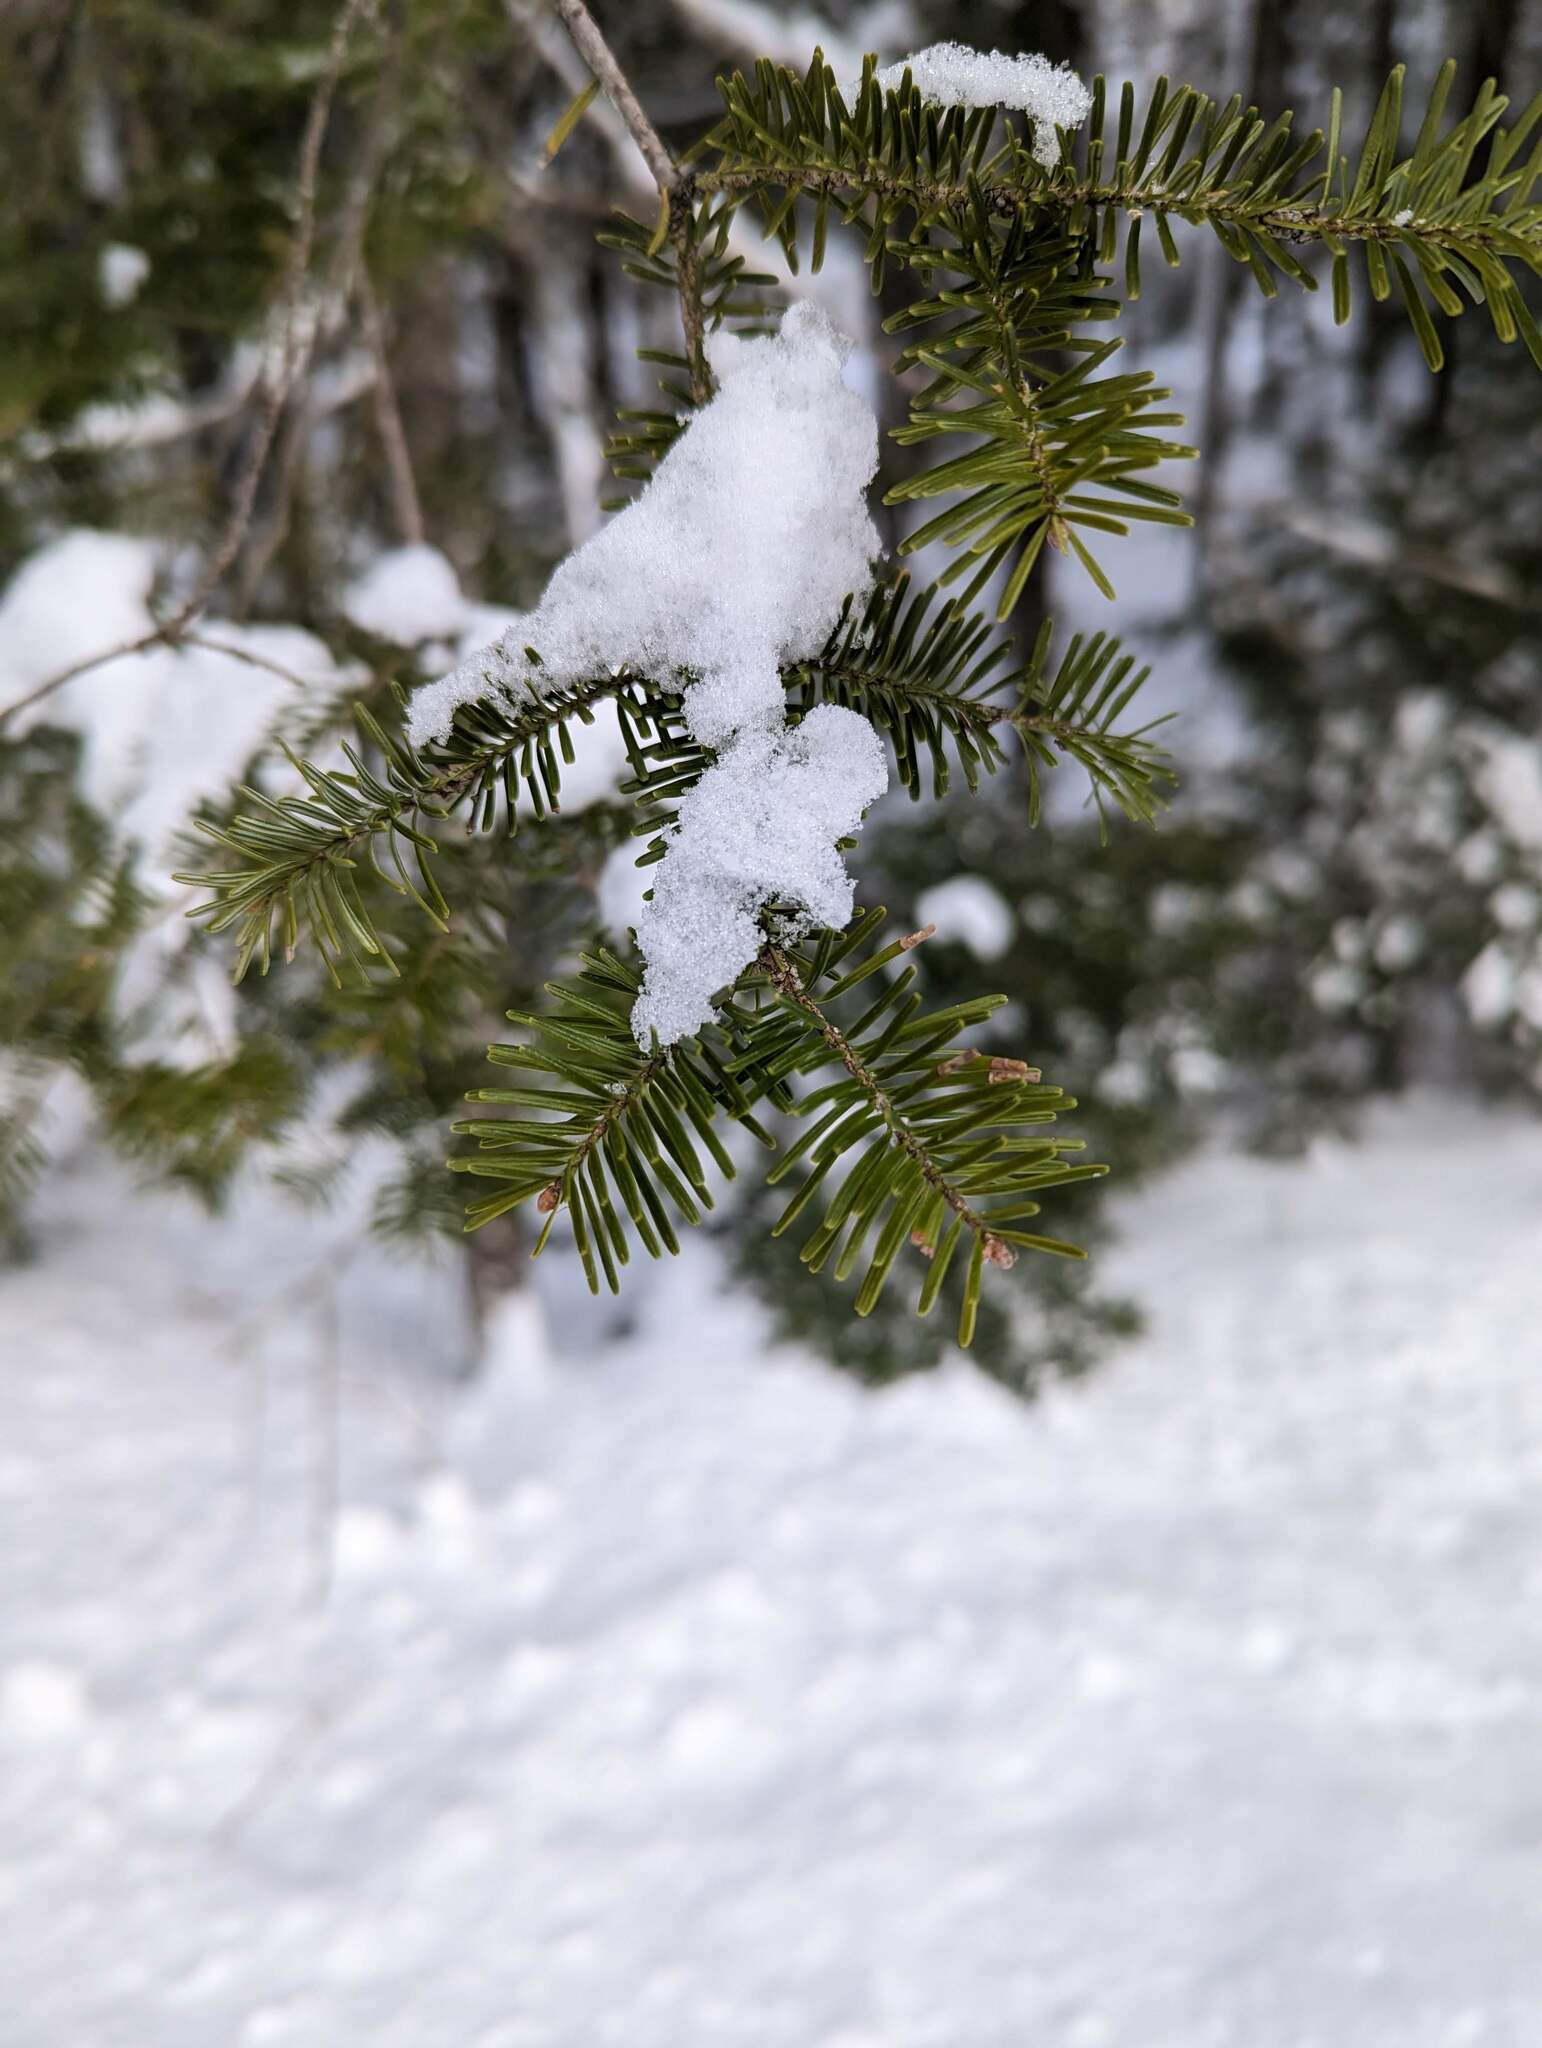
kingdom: Plantae
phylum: Tracheophyta
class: Pinopsida
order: Pinales
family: Pinaceae
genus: Abies
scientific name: Abies balsamea
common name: Balsam fir
